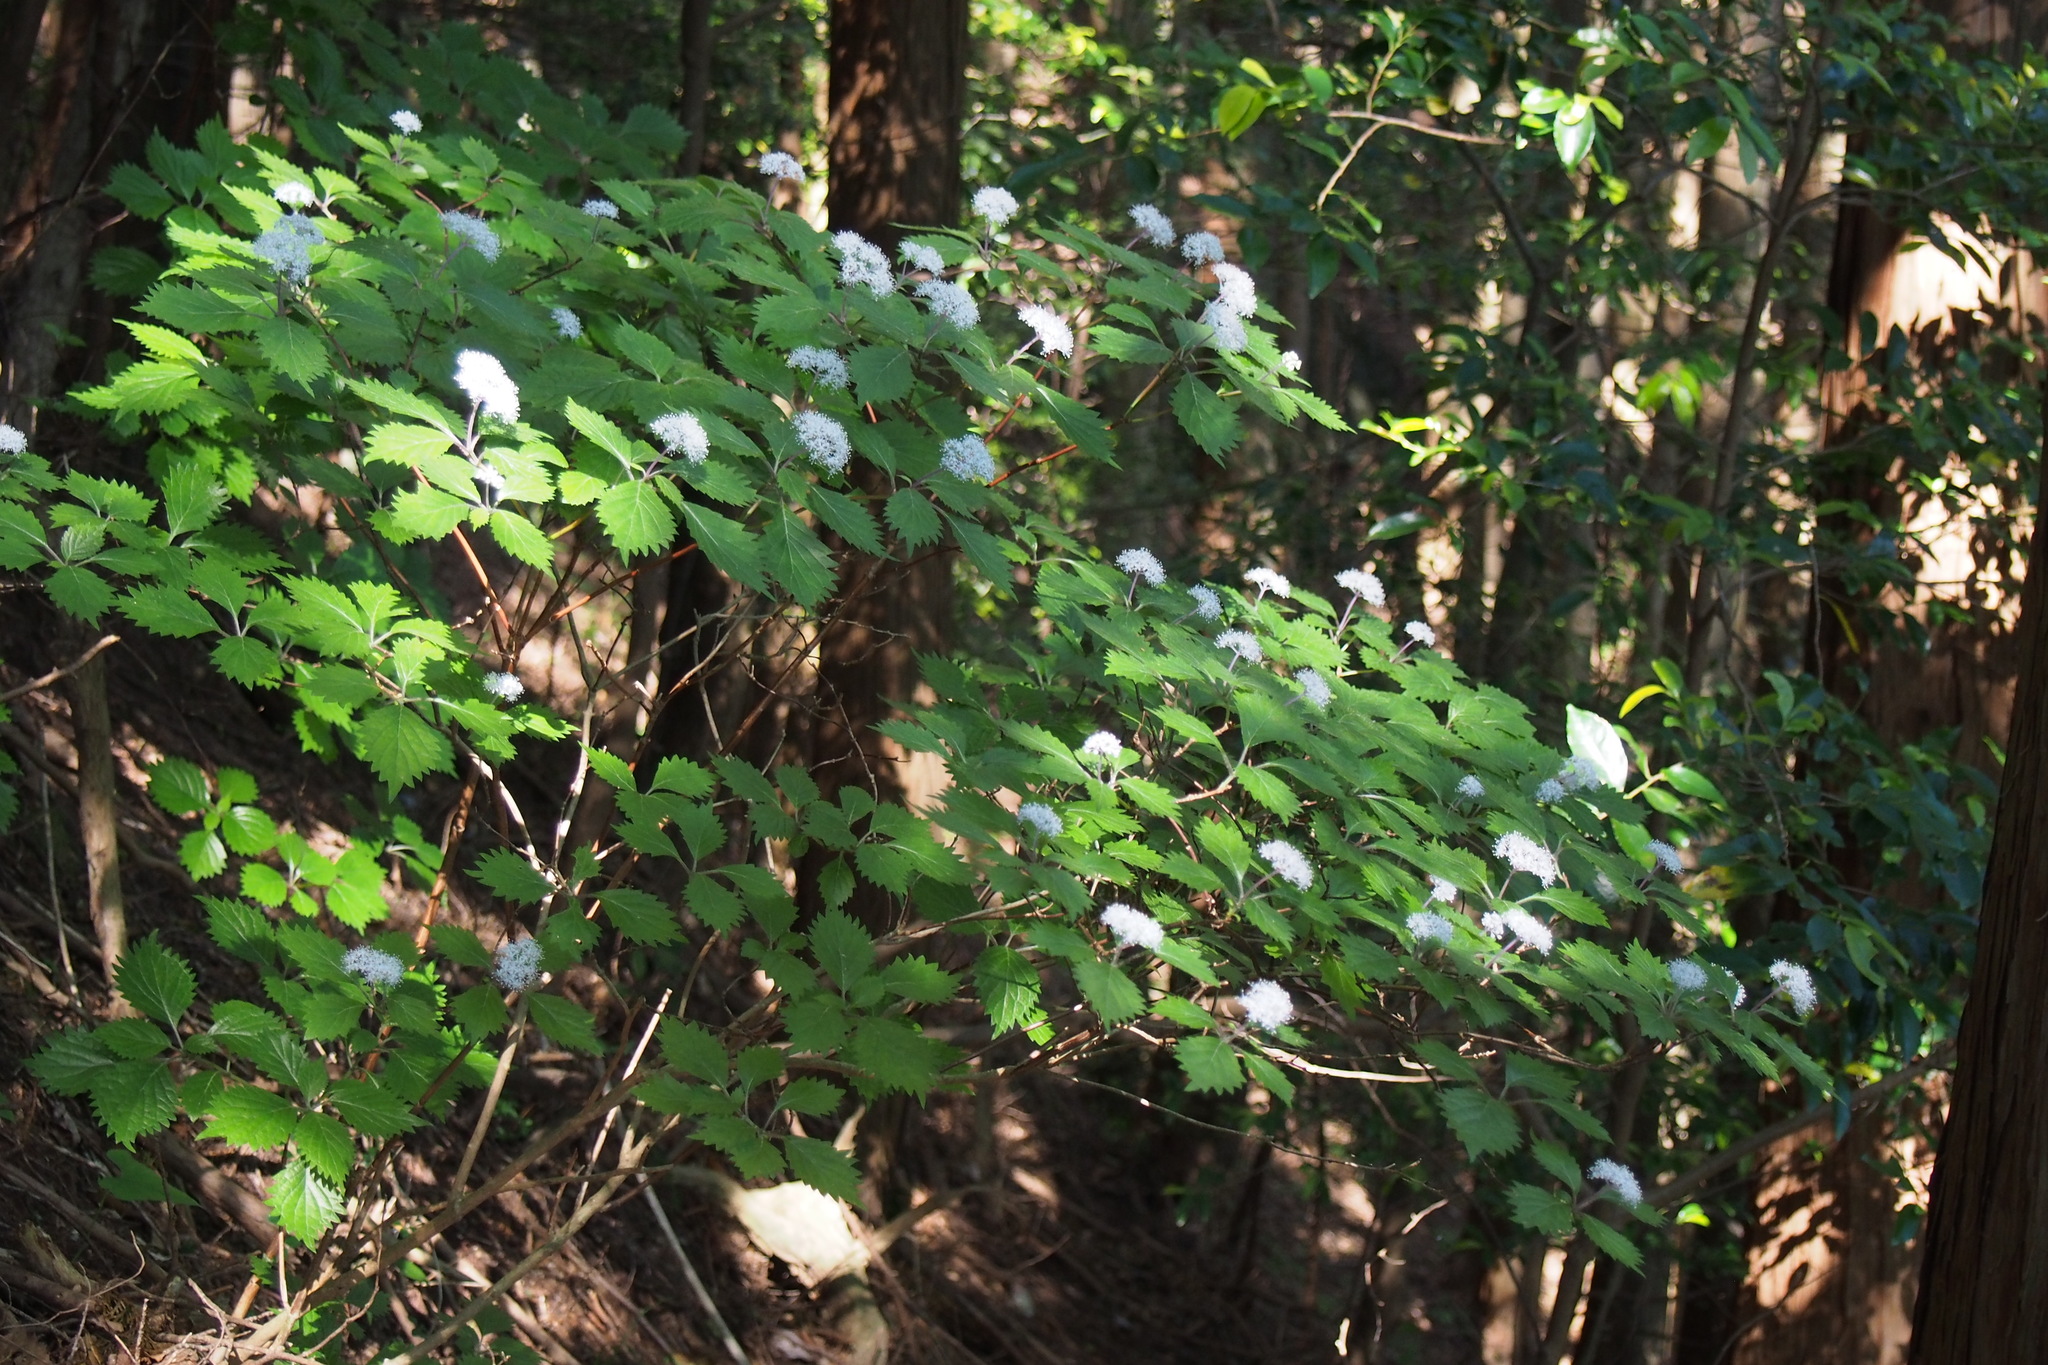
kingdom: Plantae
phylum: Tracheophyta
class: Magnoliopsida
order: Cornales
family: Hydrangeaceae
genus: Hydrangea
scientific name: Hydrangea hirta
